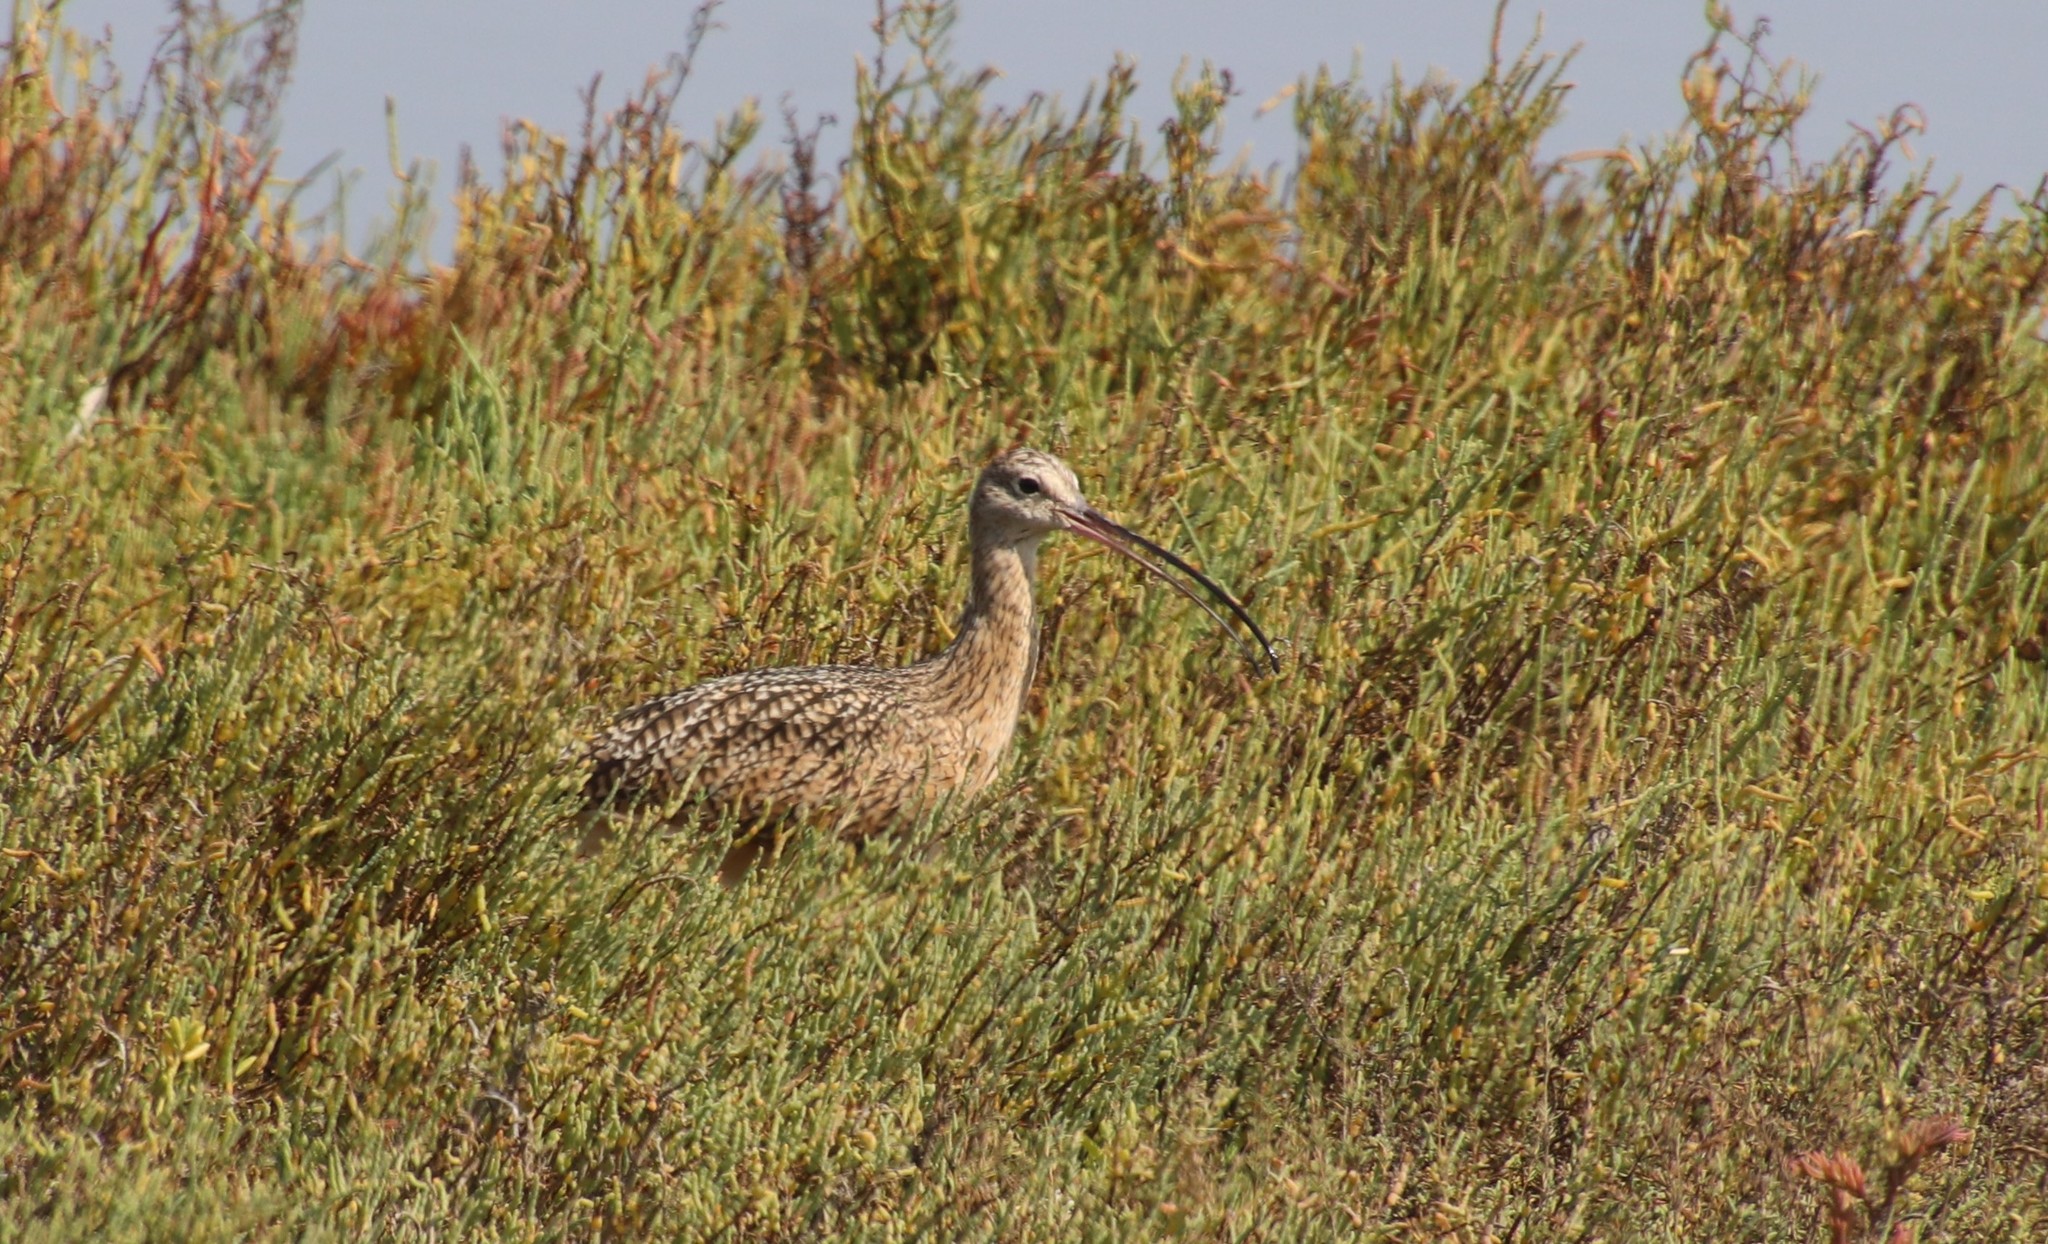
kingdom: Animalia
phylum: Chordata
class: Aves
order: Charadriiformes
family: Scolopacidae
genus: Numenius
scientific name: Numenius americanus
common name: Long-billed curlew
